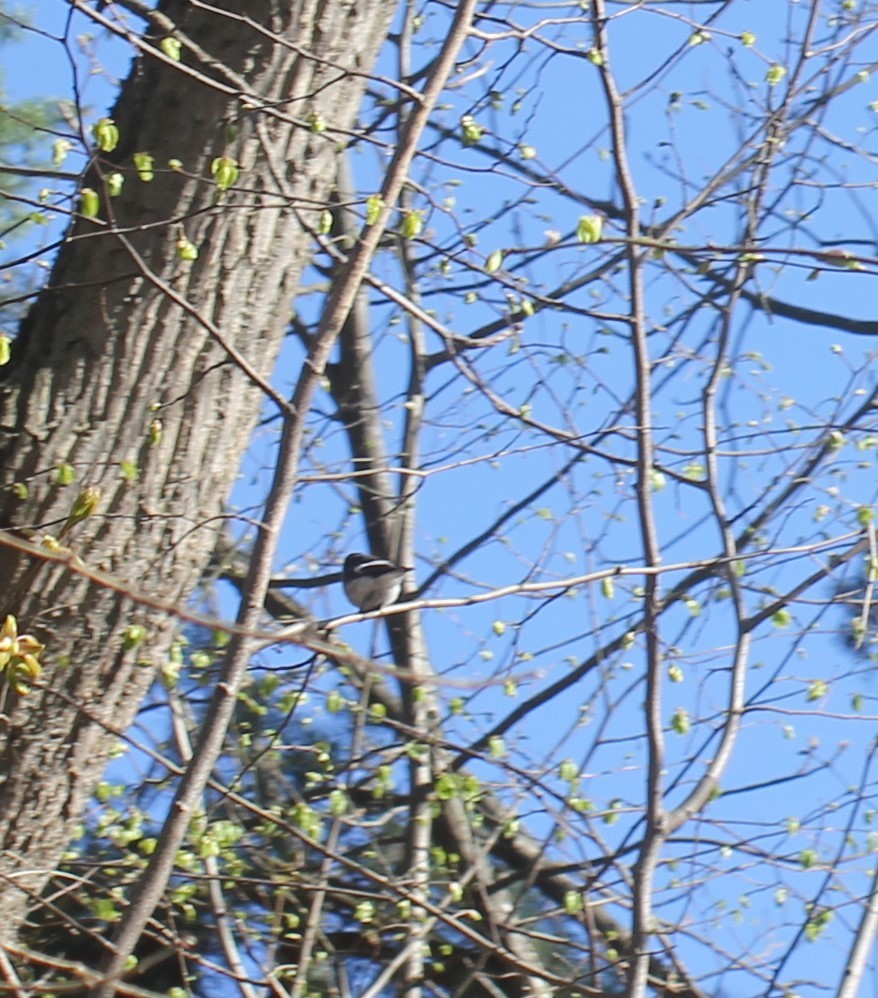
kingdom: Animalia
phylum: Chordata
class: Aves
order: Passeriformes
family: Muscicapidae
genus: Ficedula
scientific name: Ficedula hypoleuca
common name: European pied flycatcher
